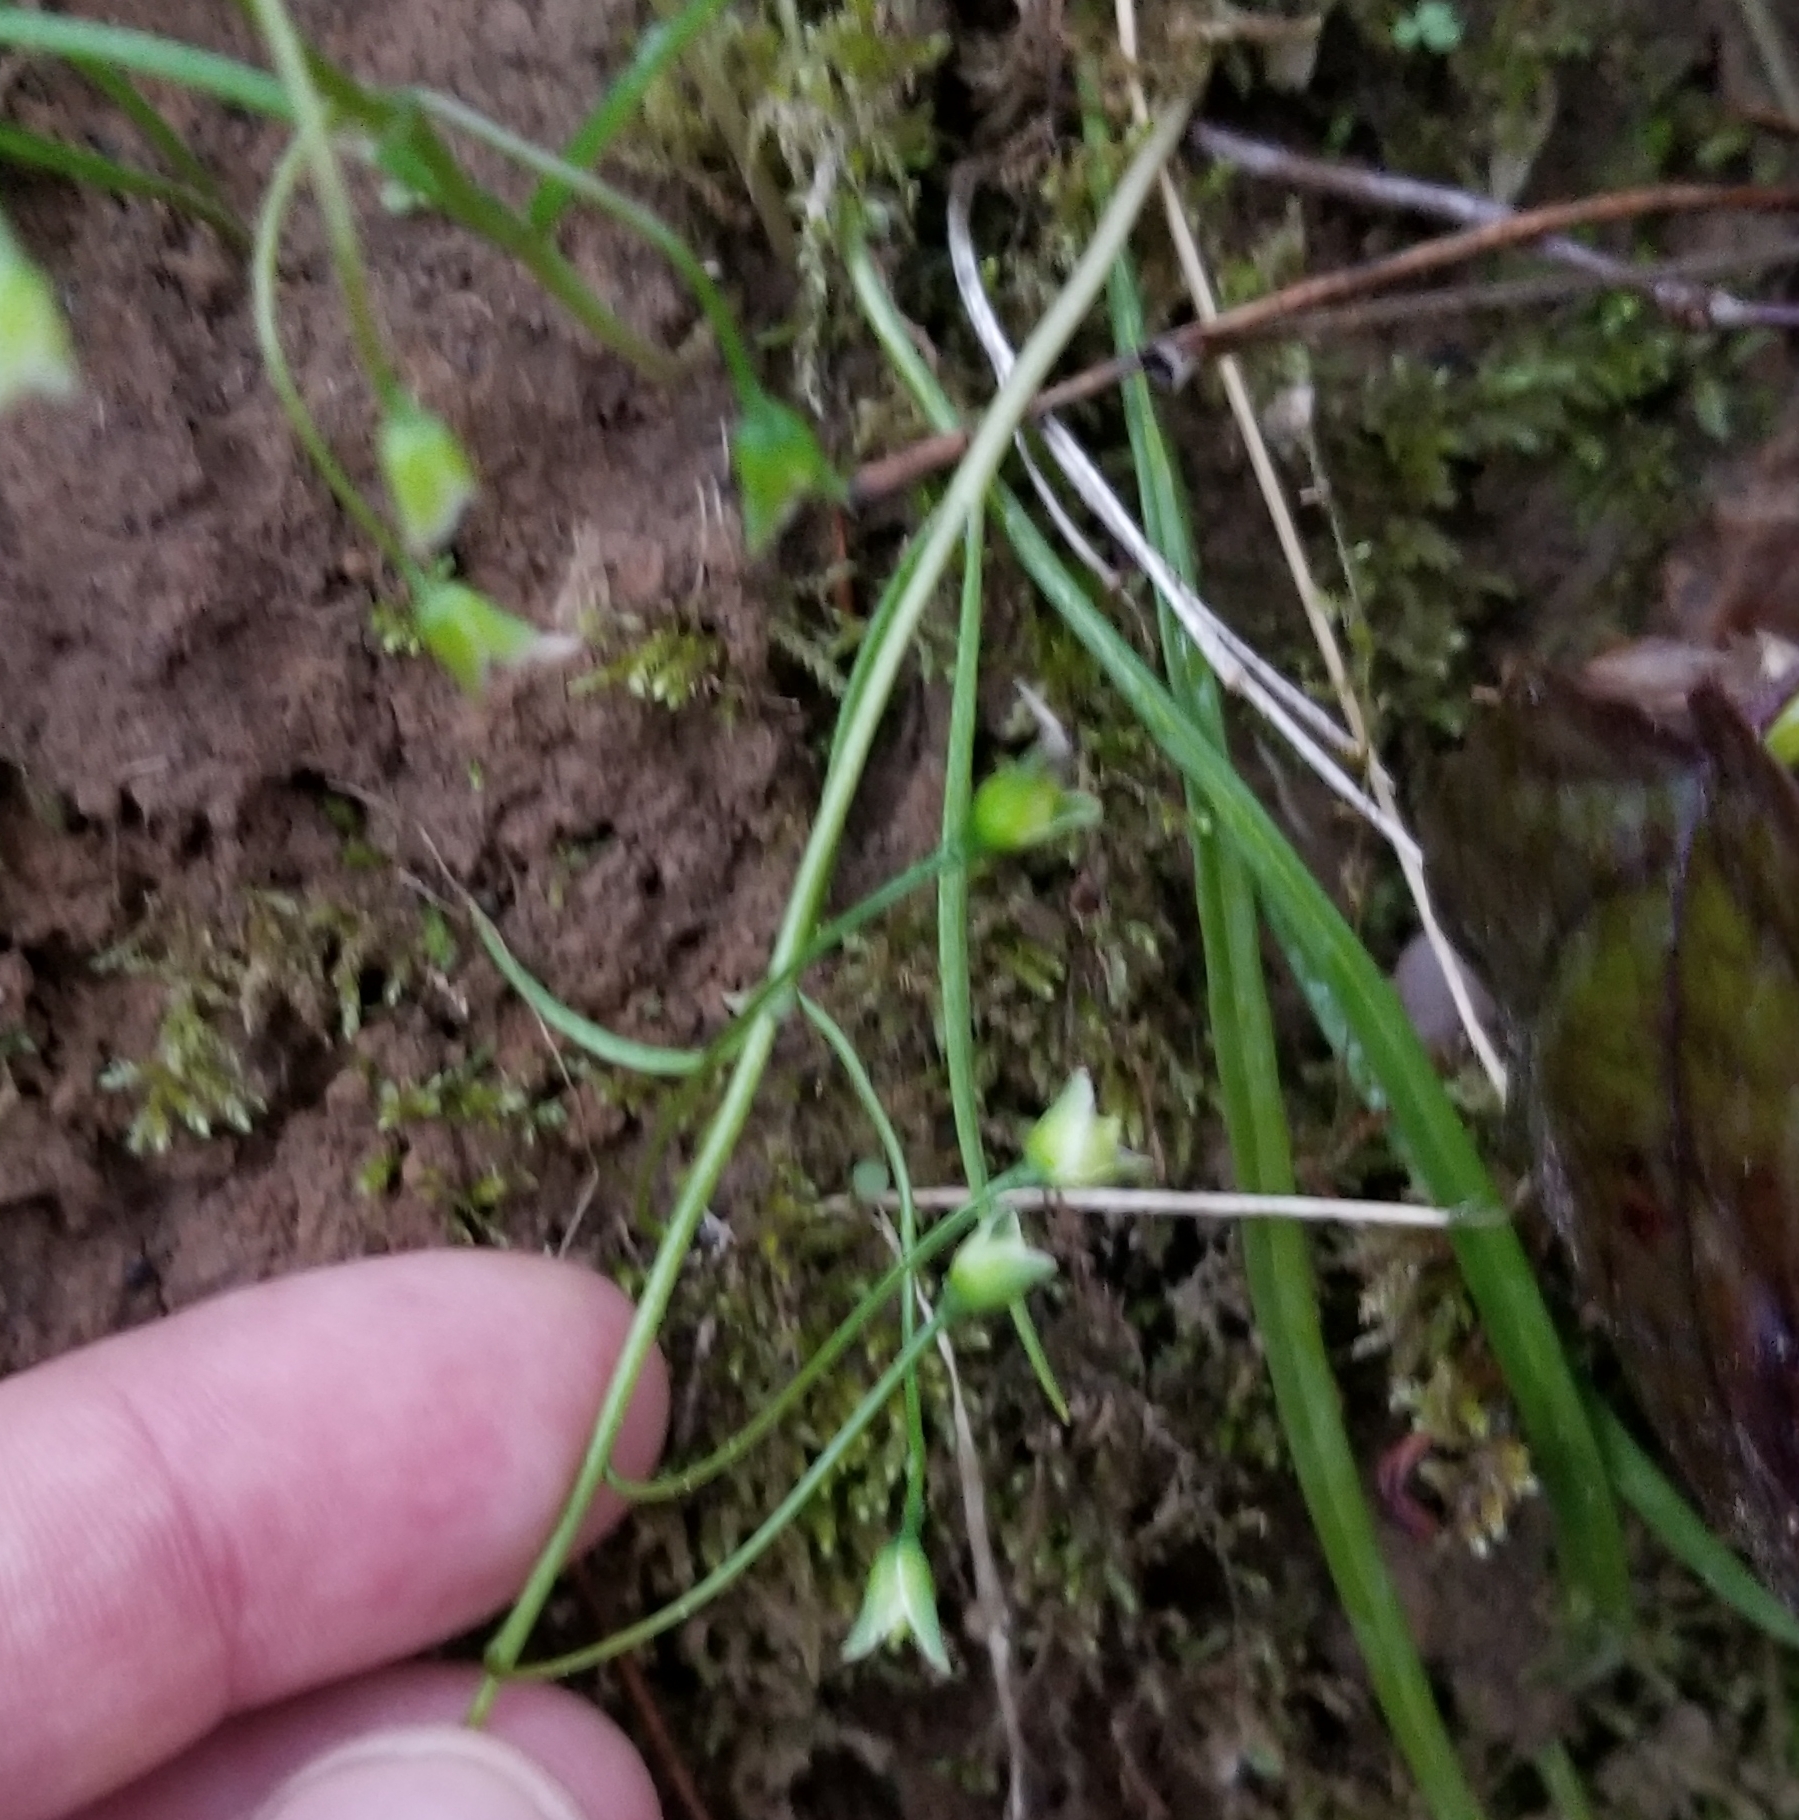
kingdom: Plantae
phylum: Tracheophyta
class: Magnoliopsida
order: Caryophyllales
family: Montiaceae
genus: Claytonia
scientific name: Claytonia virginica
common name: Virginia springbeauty
